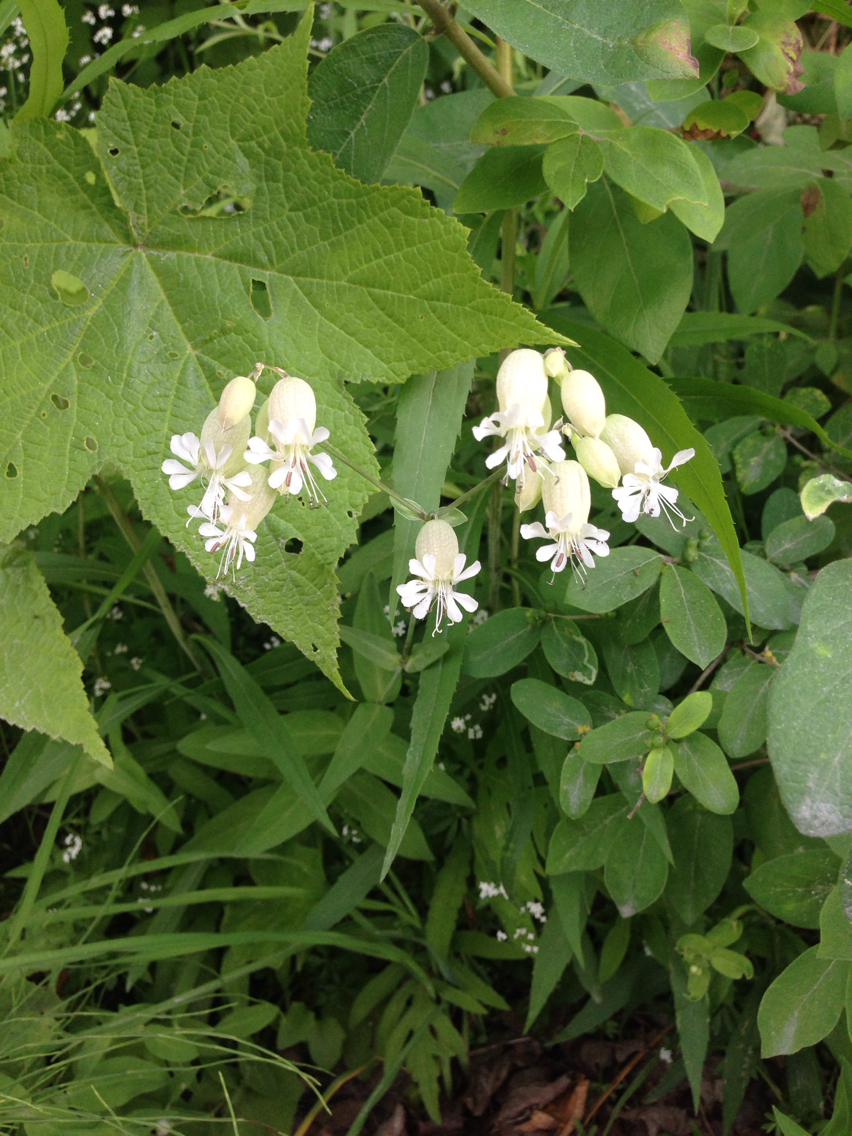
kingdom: Plantae
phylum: Tracheophyta
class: Magnoliopsida
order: Caryophyllales
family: Caryophyllaceae
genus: Silene
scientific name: Silene vulgaris
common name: Bladder campion
